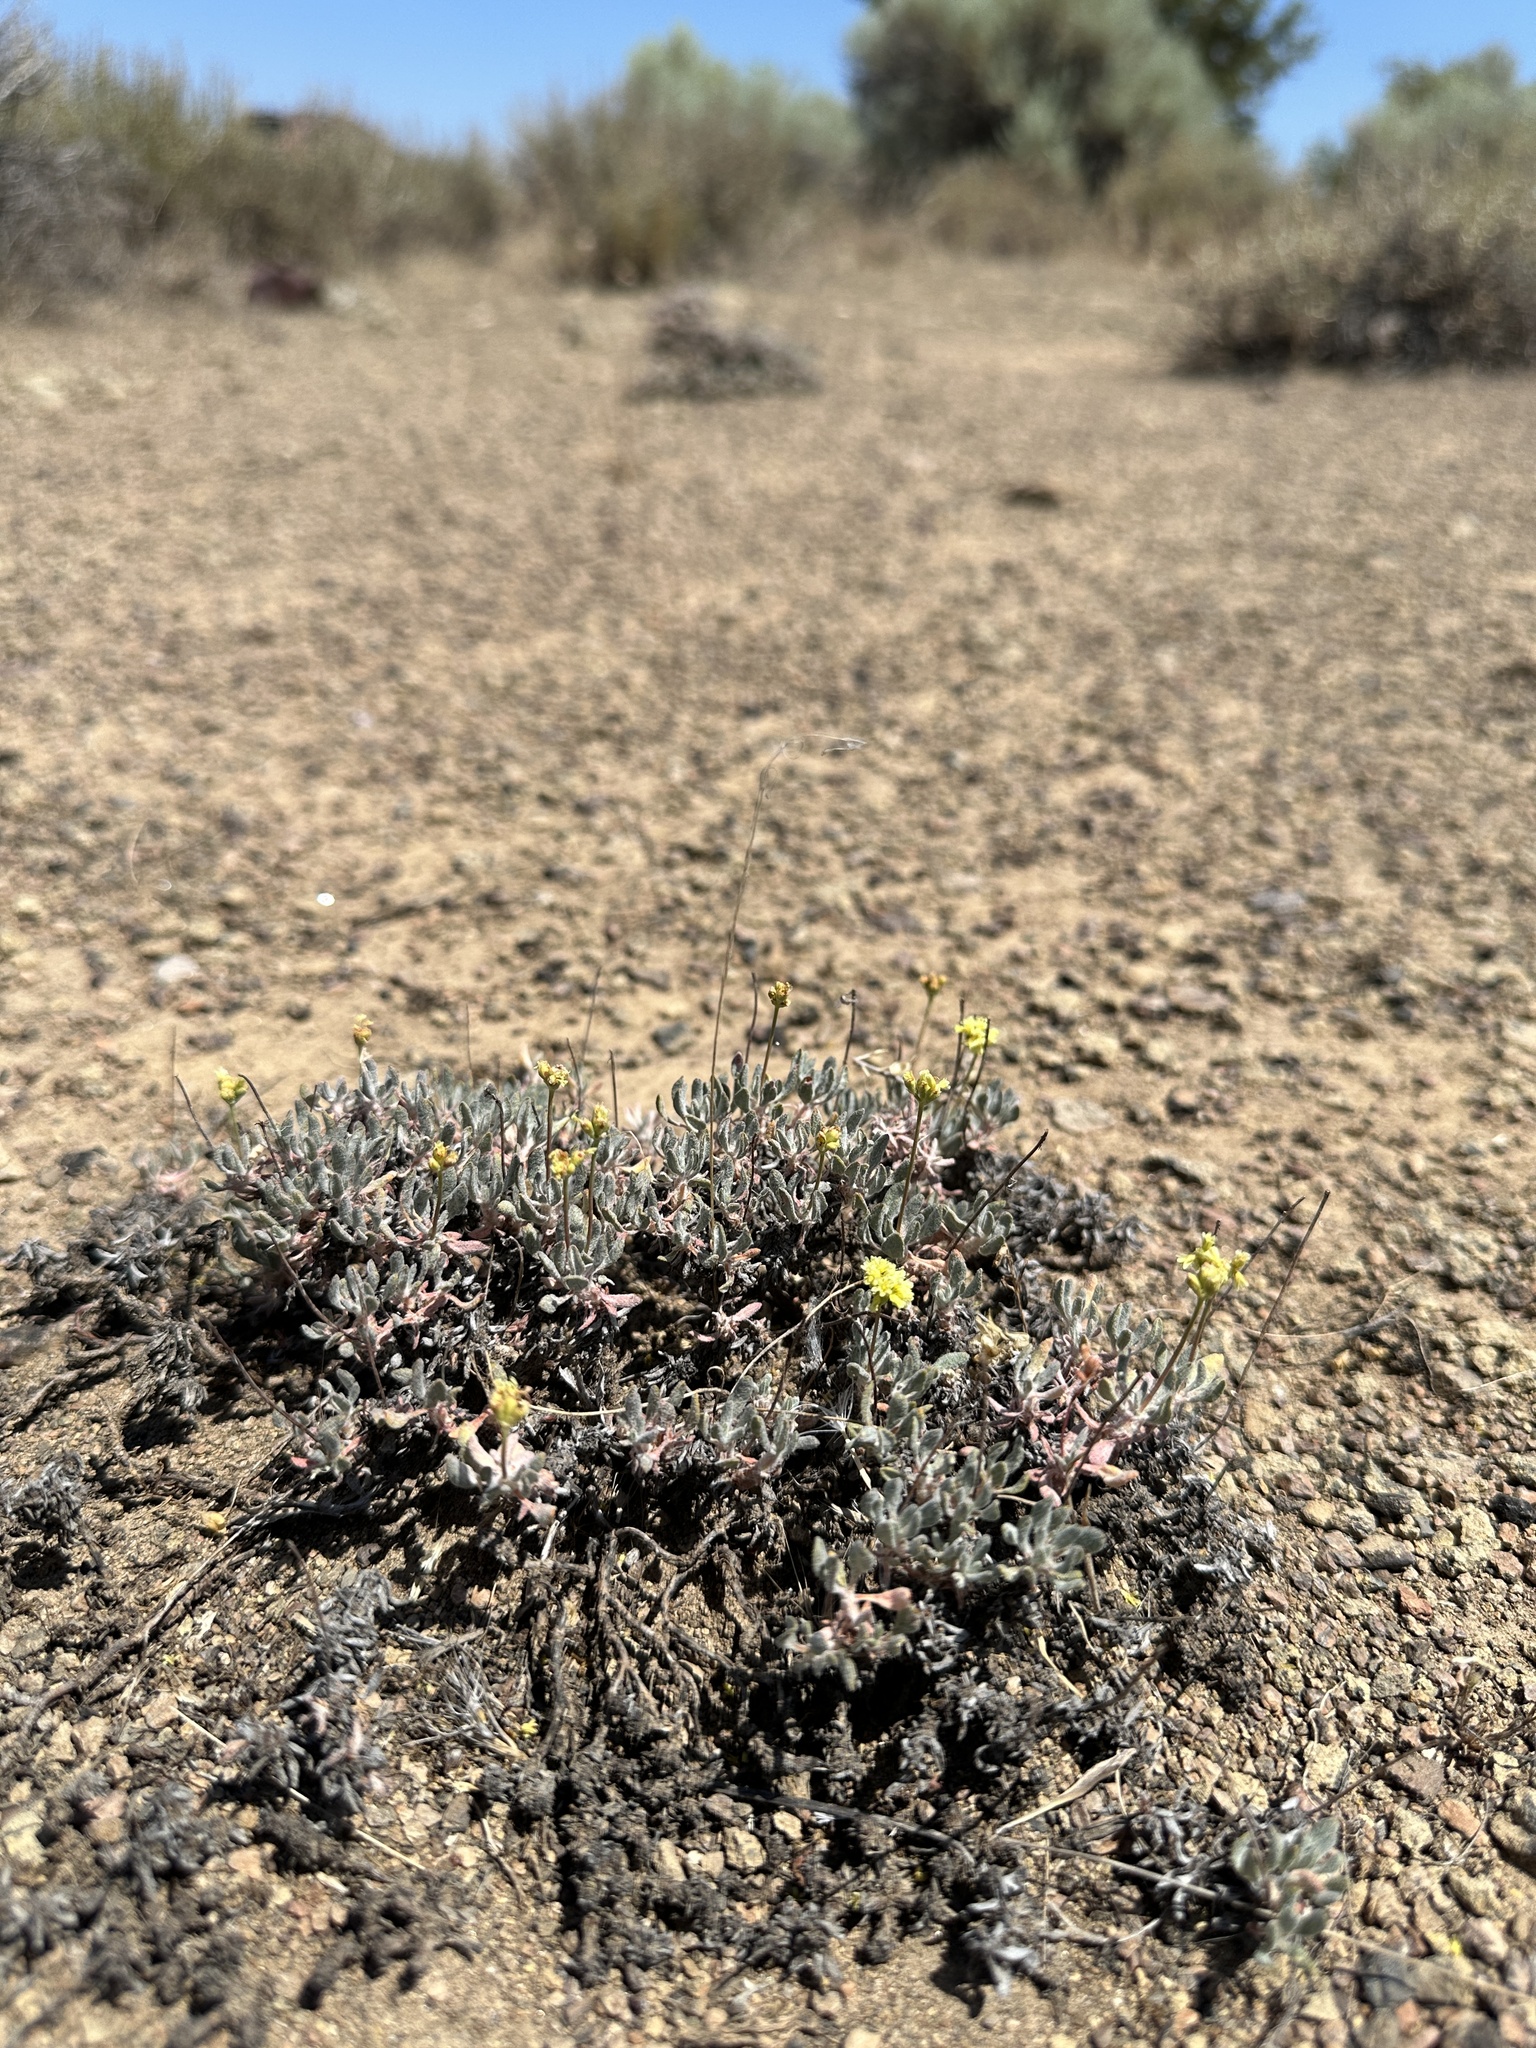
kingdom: Plantae
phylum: Tracheophyta
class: Magnoliopsida
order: Caryophyllales
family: Polygonaceae
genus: Eriogonum
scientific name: Eriogonum cusickii
